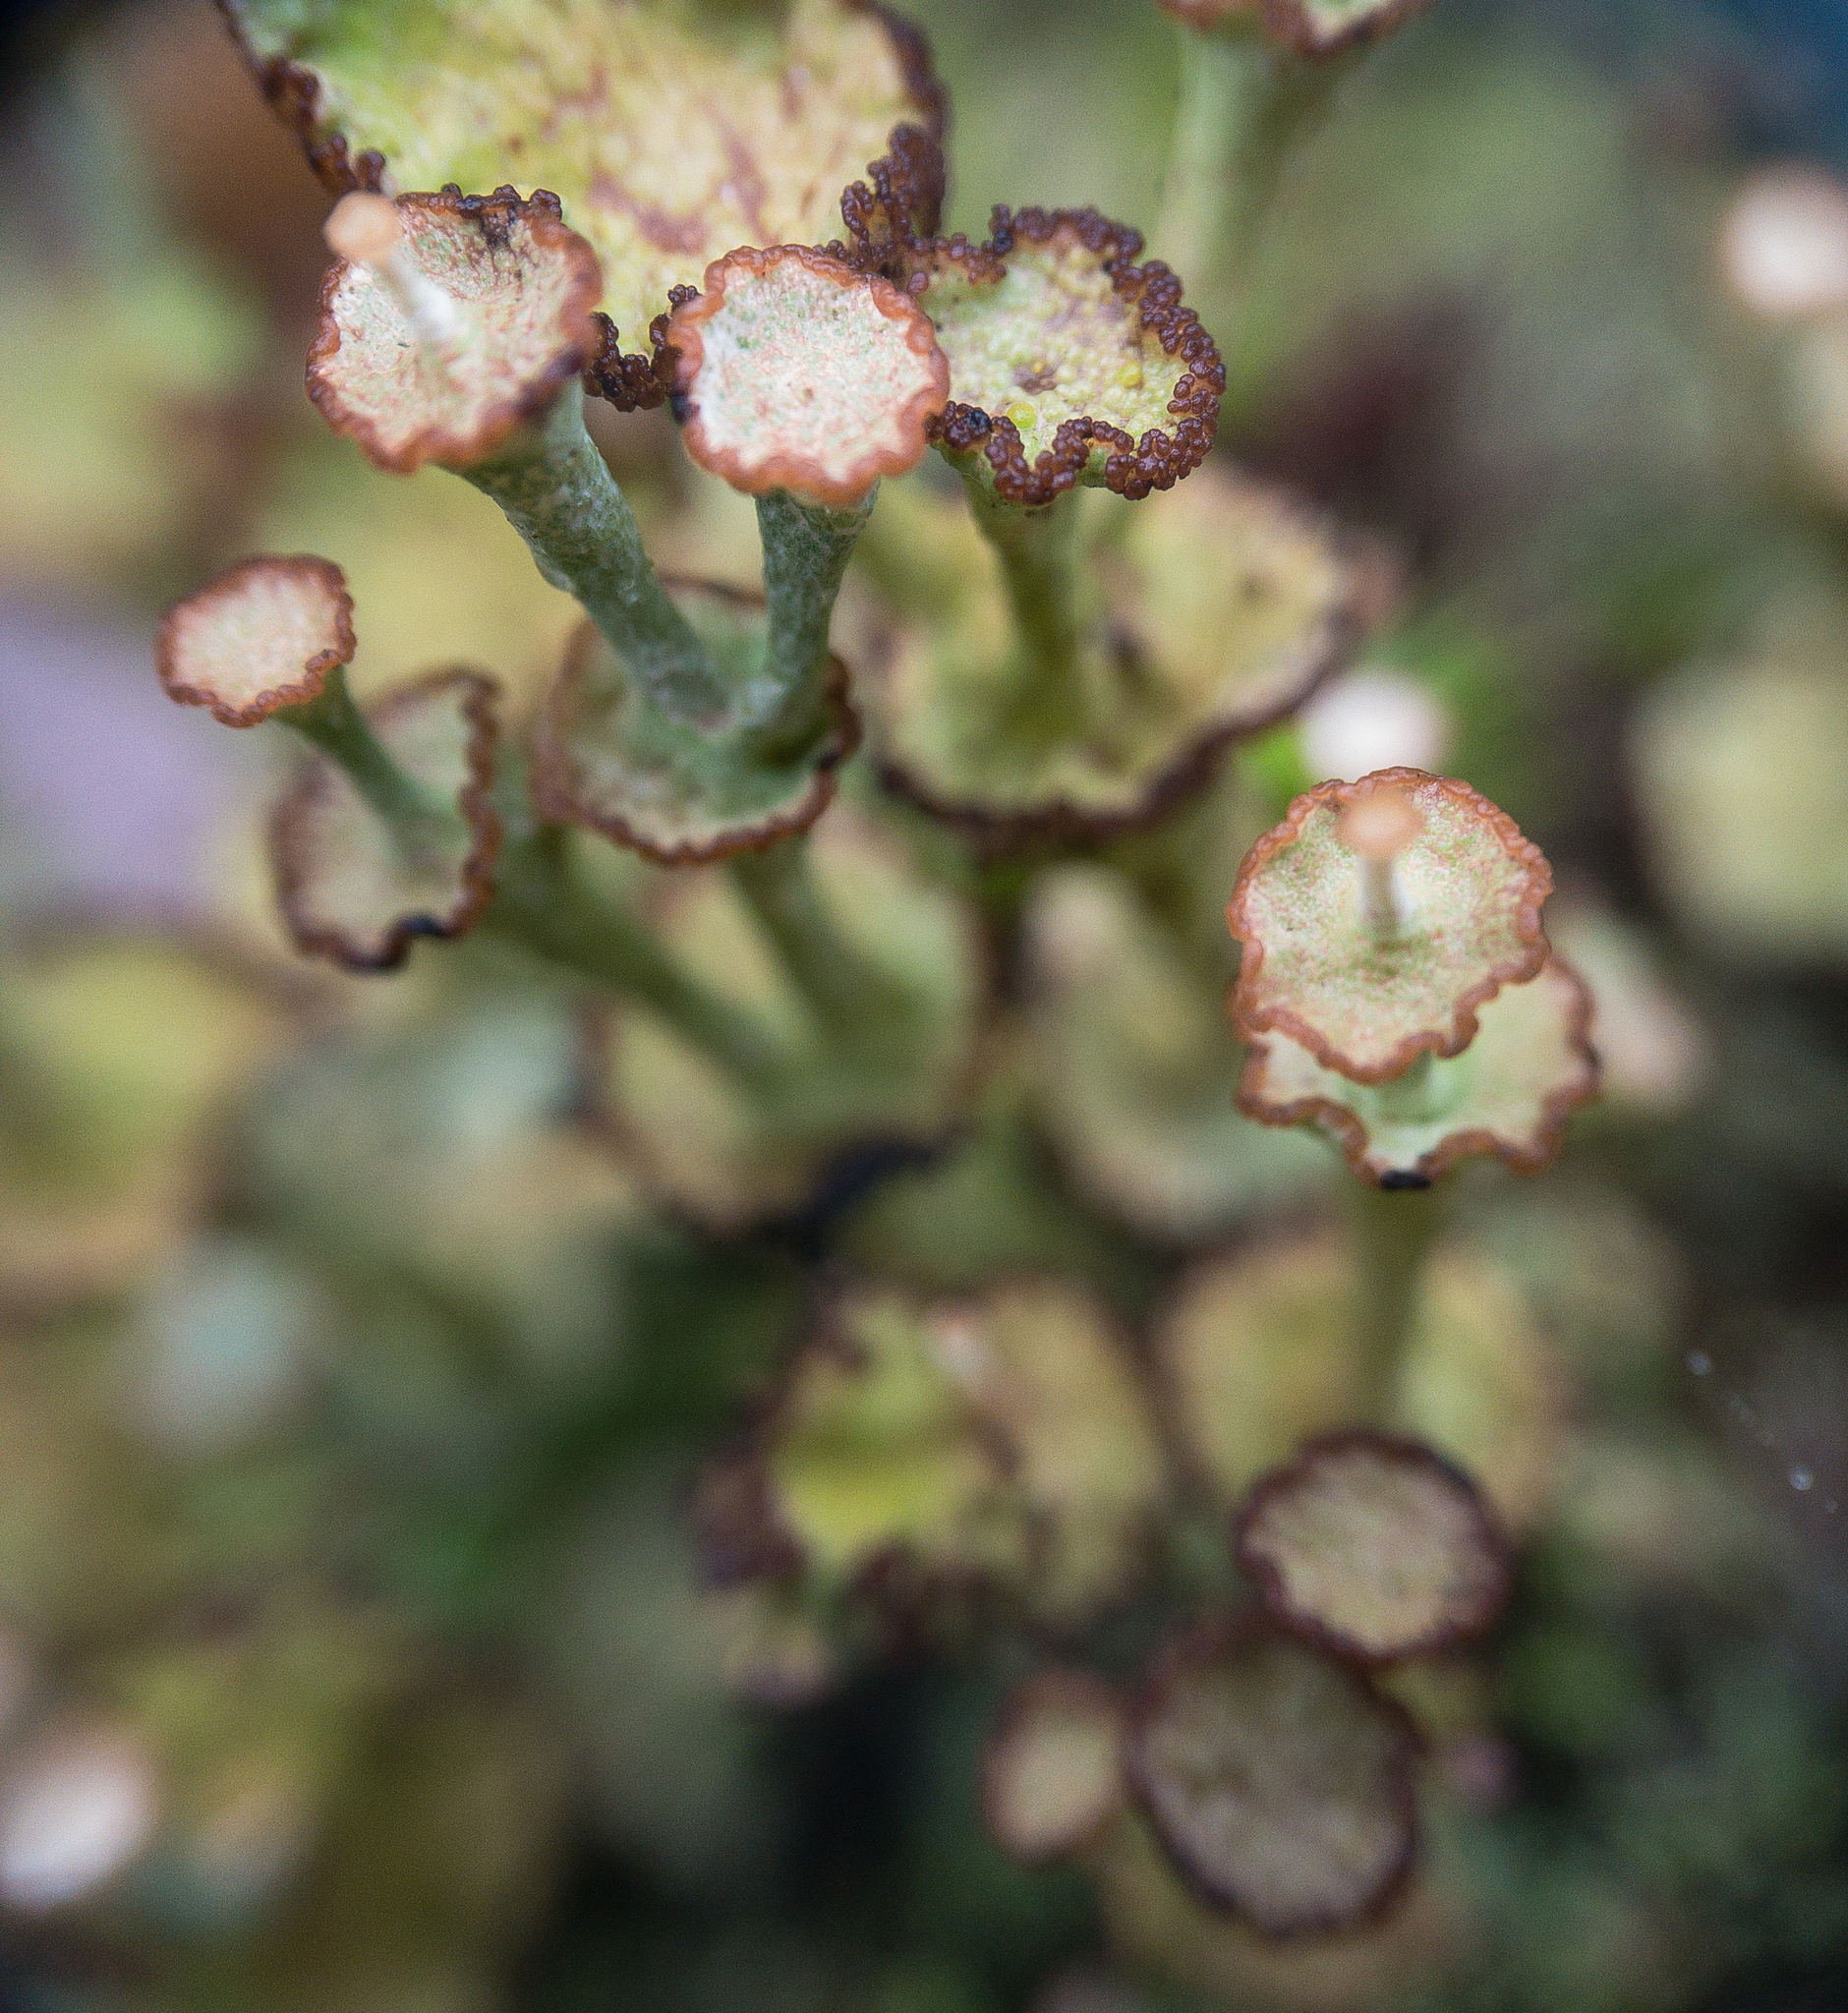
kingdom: Fungi
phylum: Ascomycota
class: Lecanoromycetes
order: Lecanorales
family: Cladoniaceae
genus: Cladonia
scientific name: Cladonia cervicornis
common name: Browned pixie-cup lichen
